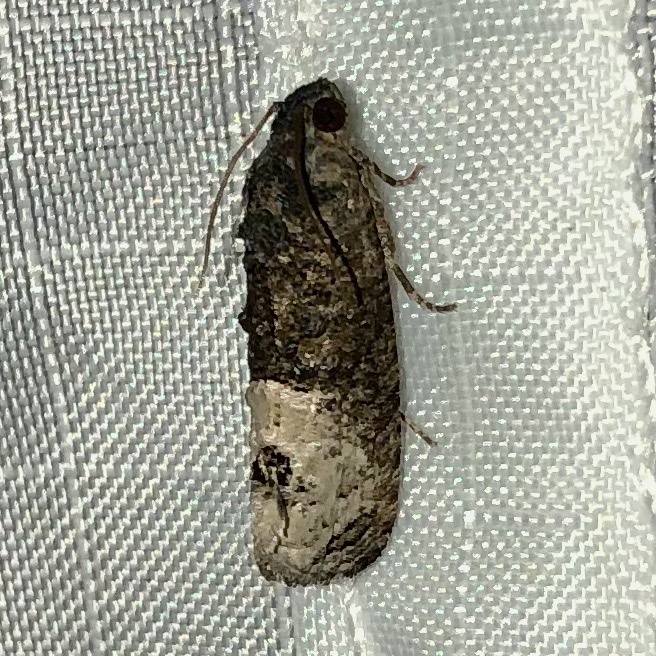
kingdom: Animalia
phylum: Arthropoda
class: Insecta
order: Lepidoptera
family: Tortricidae
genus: Ecdytolopha
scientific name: Ecdytolopha insiticiana
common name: Locust twig borer moth
